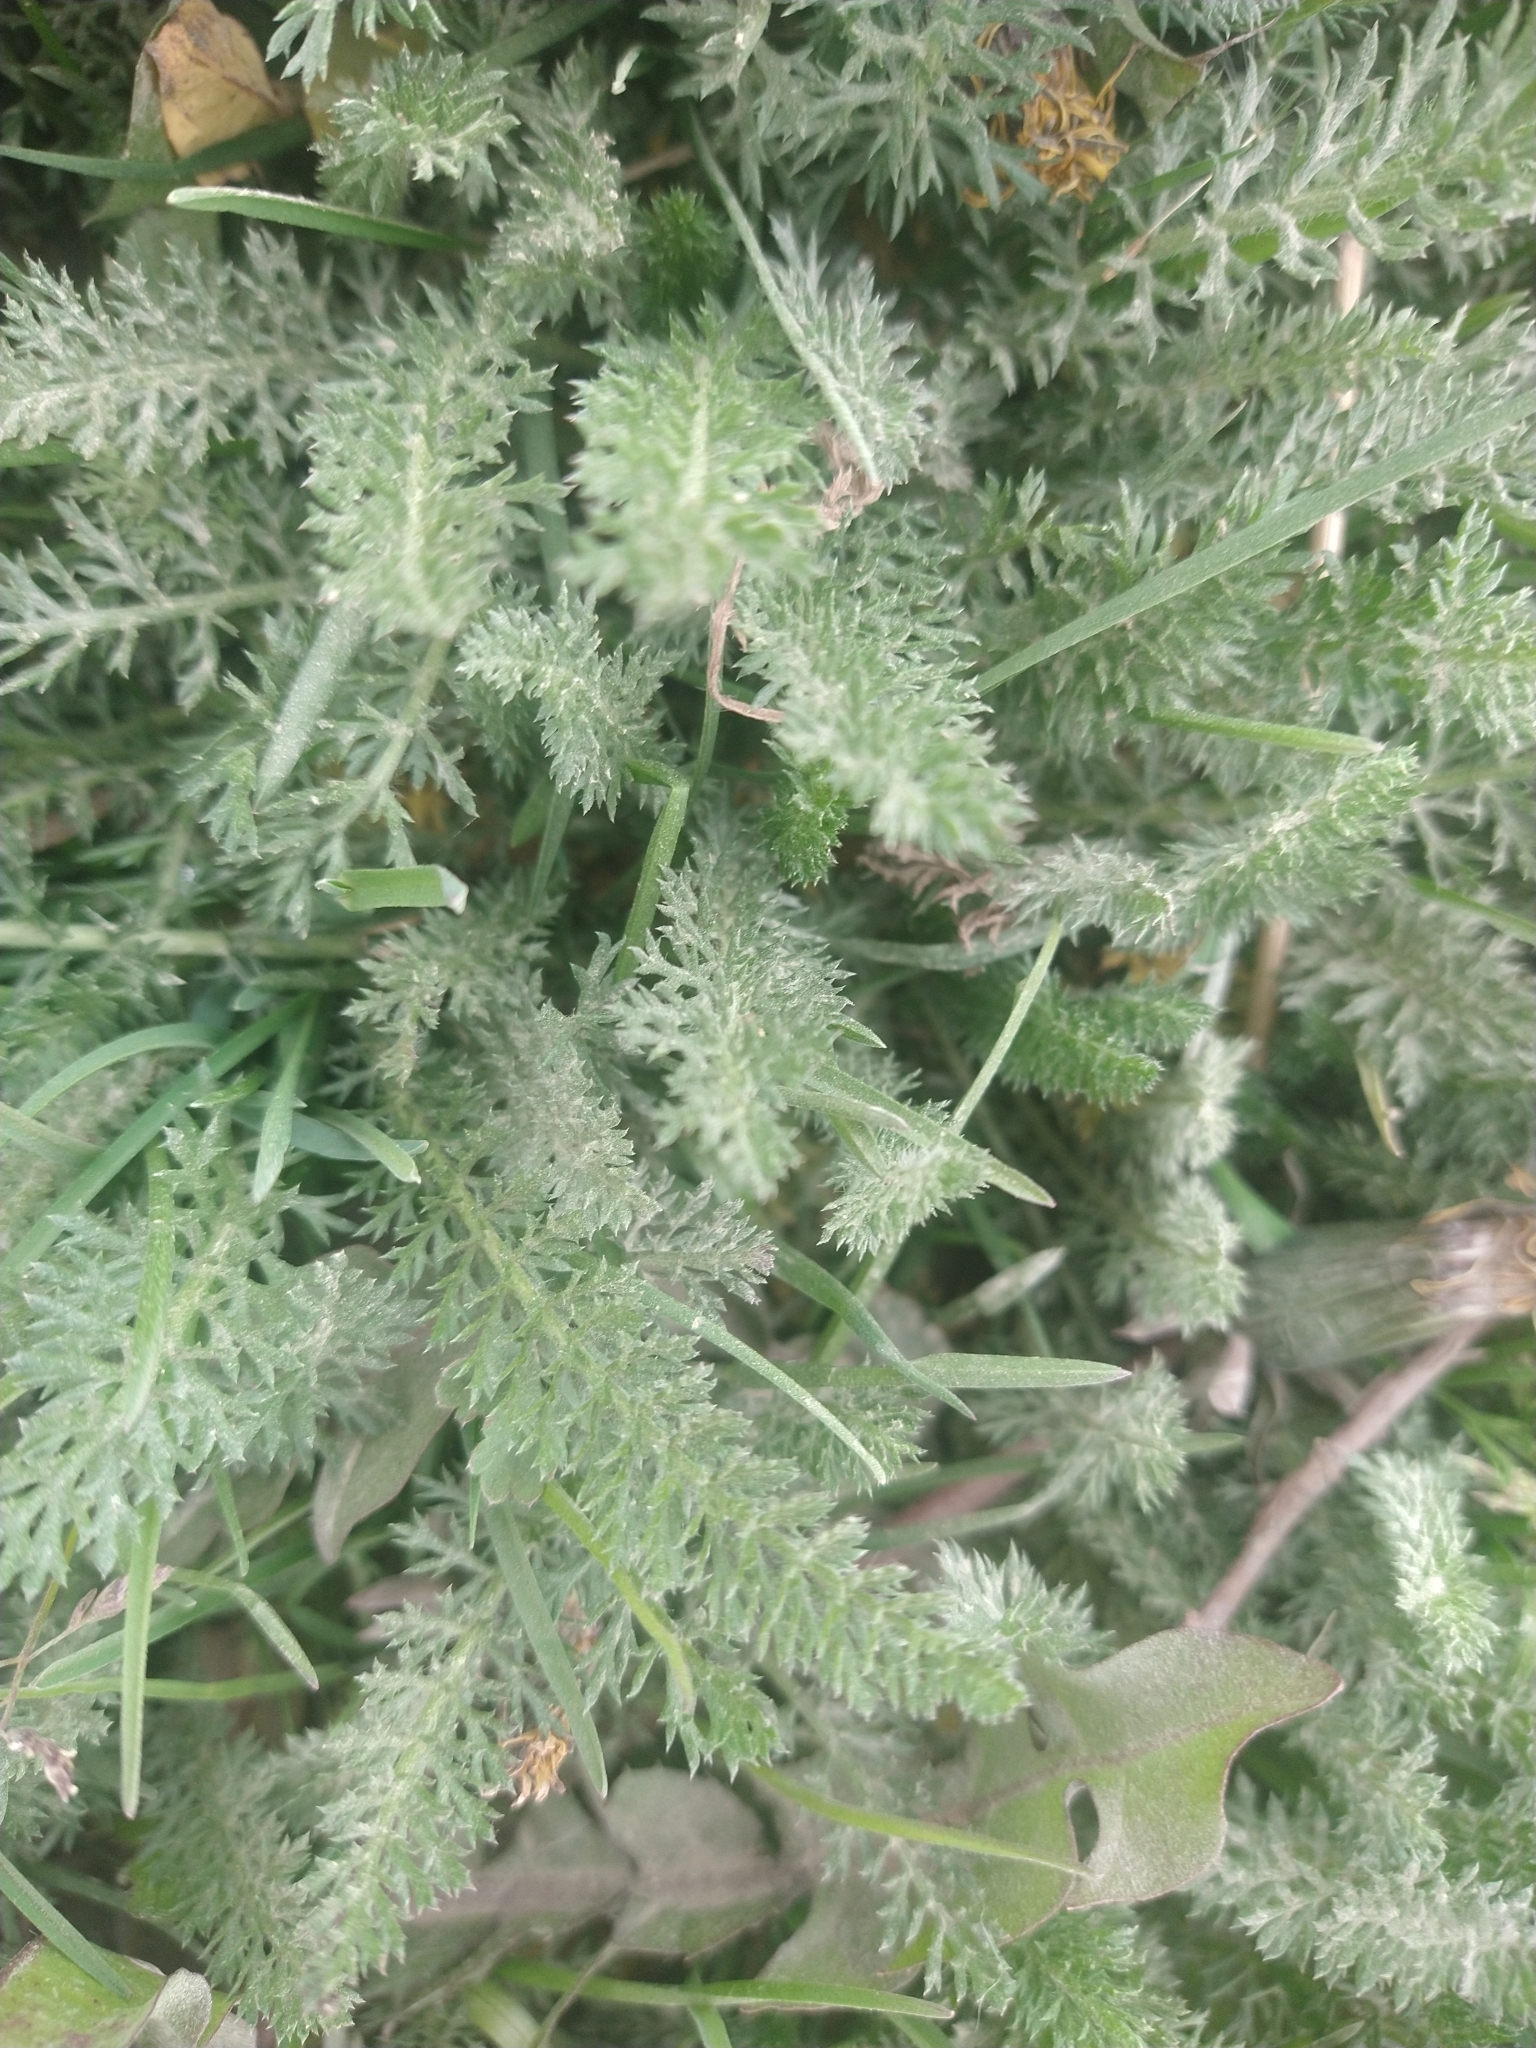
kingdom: Plantae
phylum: Tracheophyta
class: Magnoliopsida
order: Asterales
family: Asteraceae
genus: Achillea
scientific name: Achillea millefolium
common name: Yarrow
